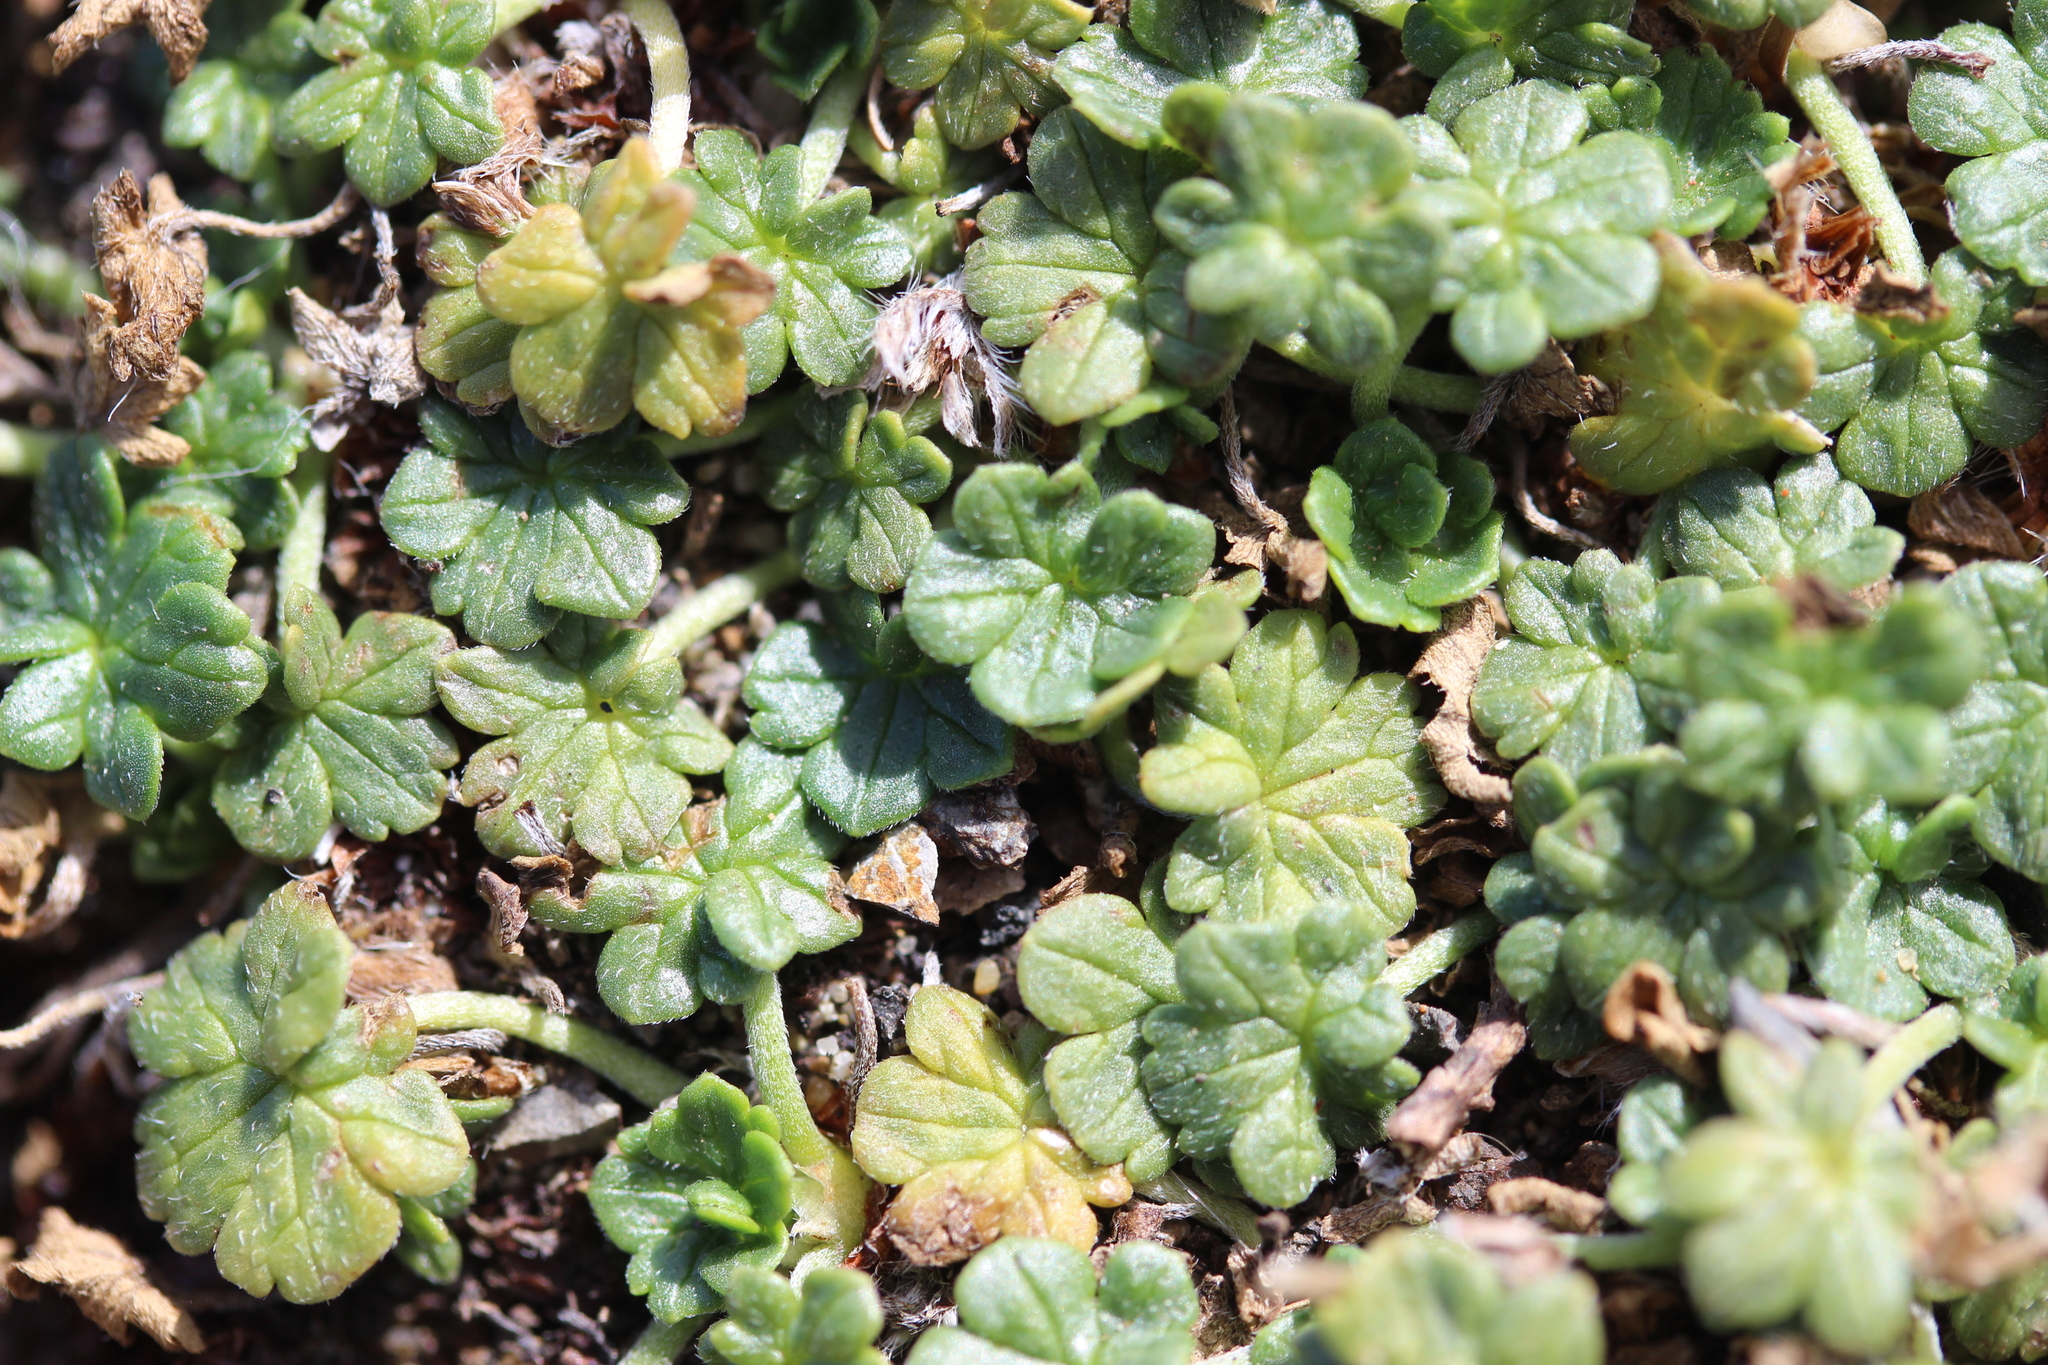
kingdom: Plantae
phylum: Tracheophyta
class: Magnoliopsida
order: Geraniales
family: Geraniaceae
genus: Geranium
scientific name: Geranium brevicaule
